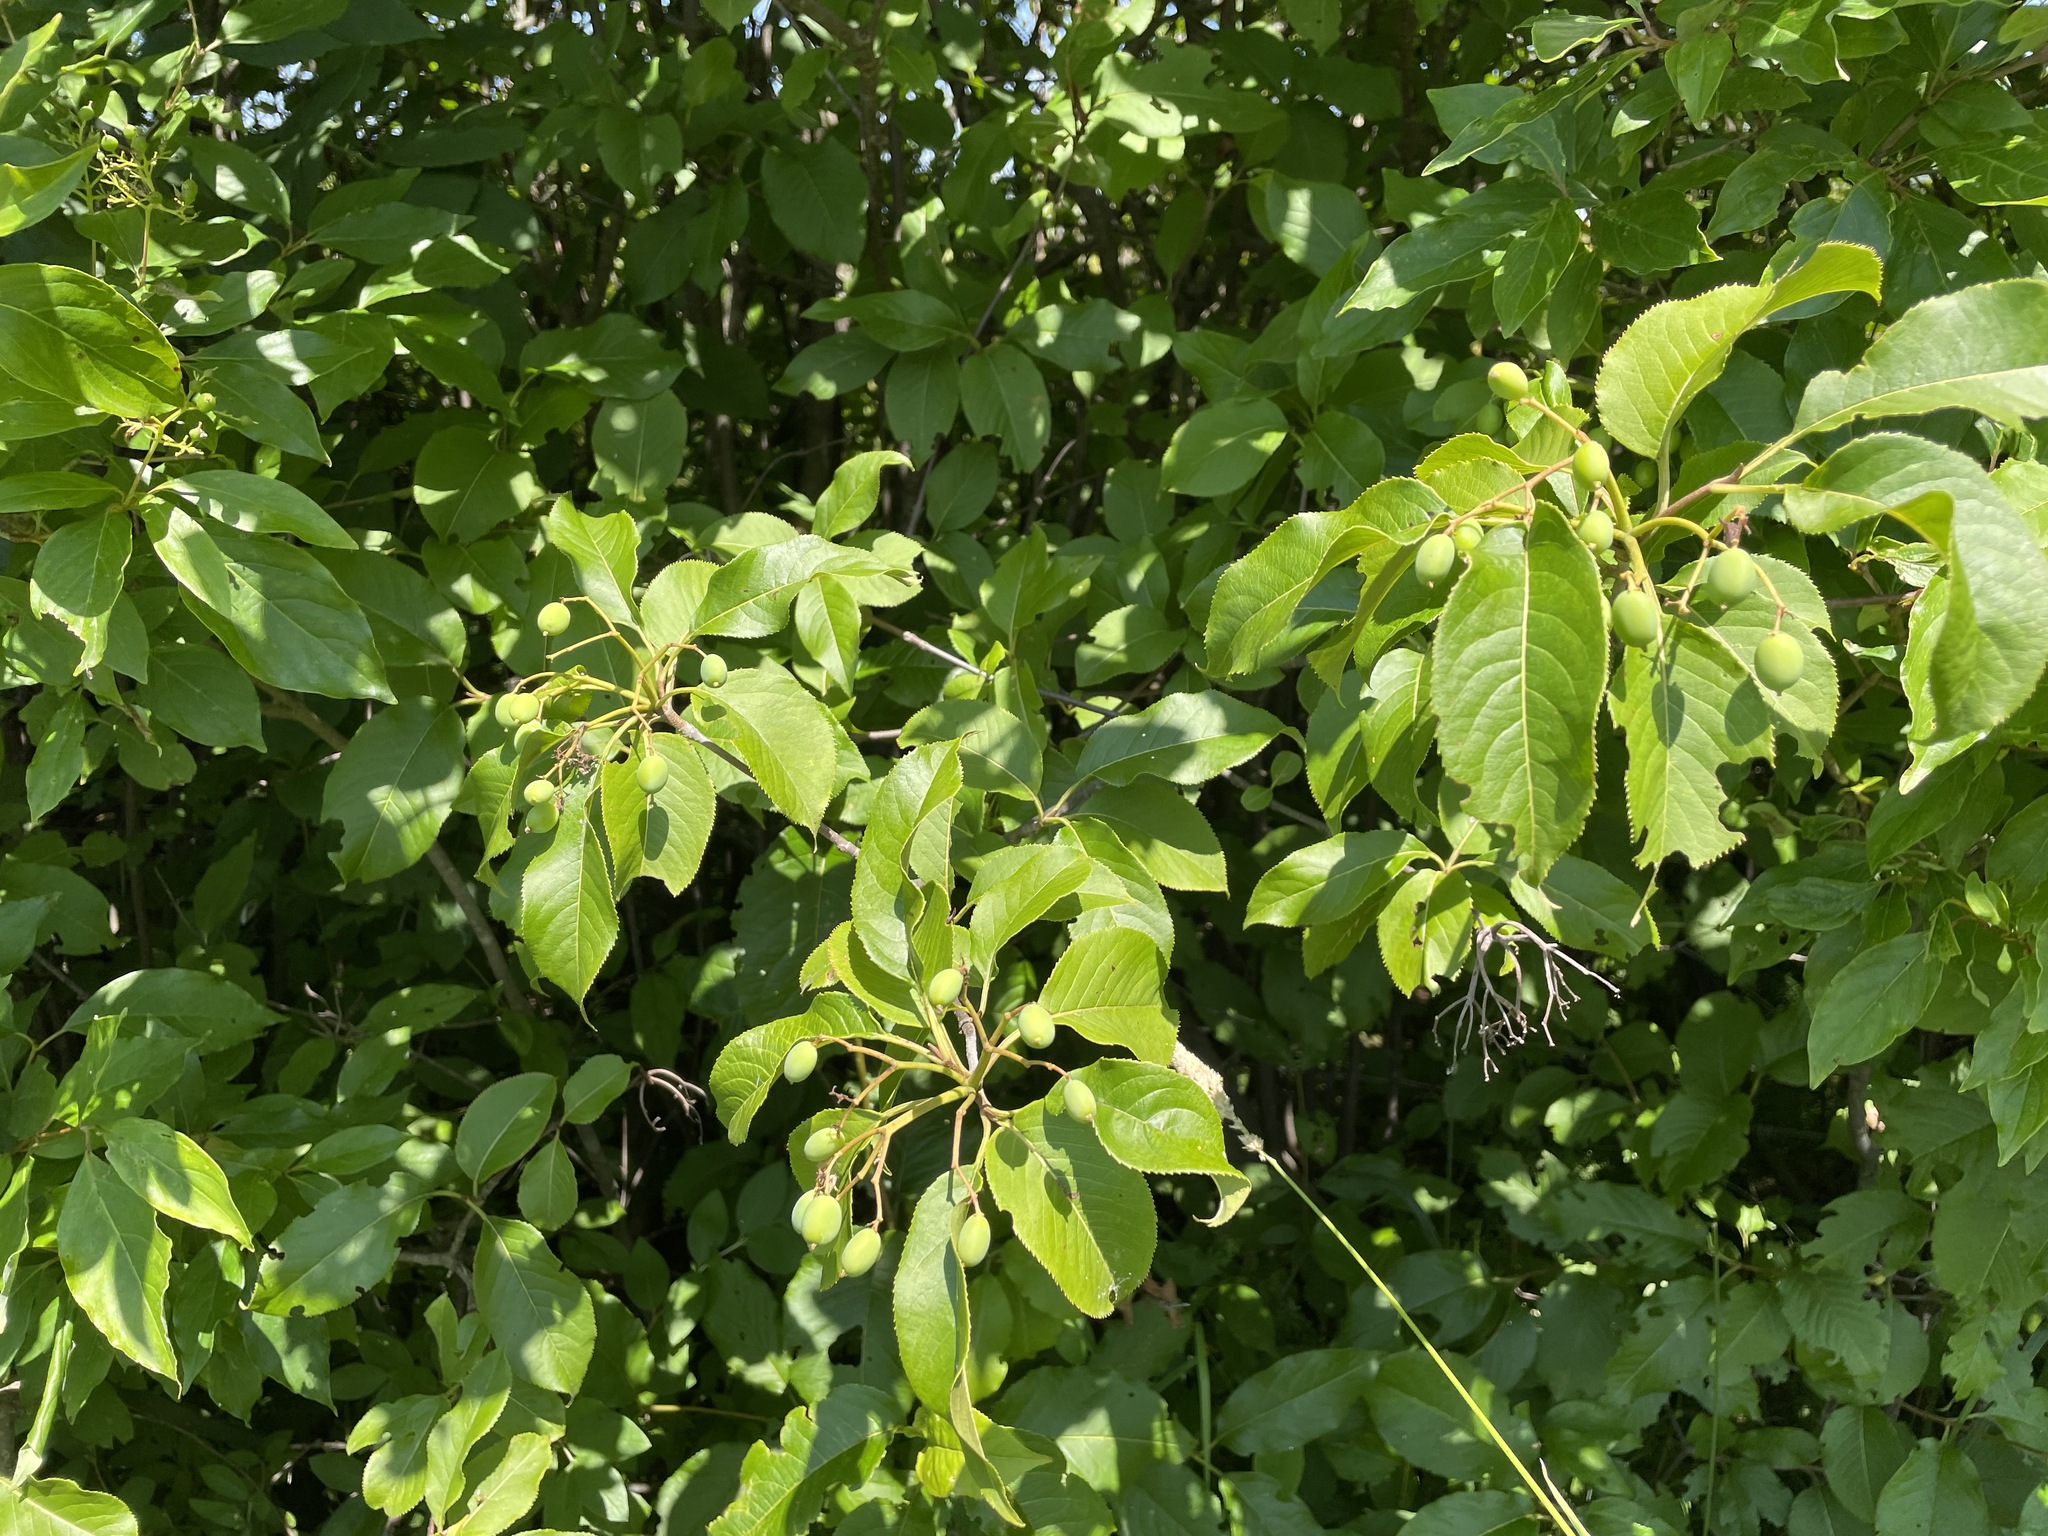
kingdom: Plantae
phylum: Tracheophyta
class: Magnoliopsida
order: Dipsacales
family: Viburnaceae
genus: Viburnum
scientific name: Viburnum lentago
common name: Black haw
